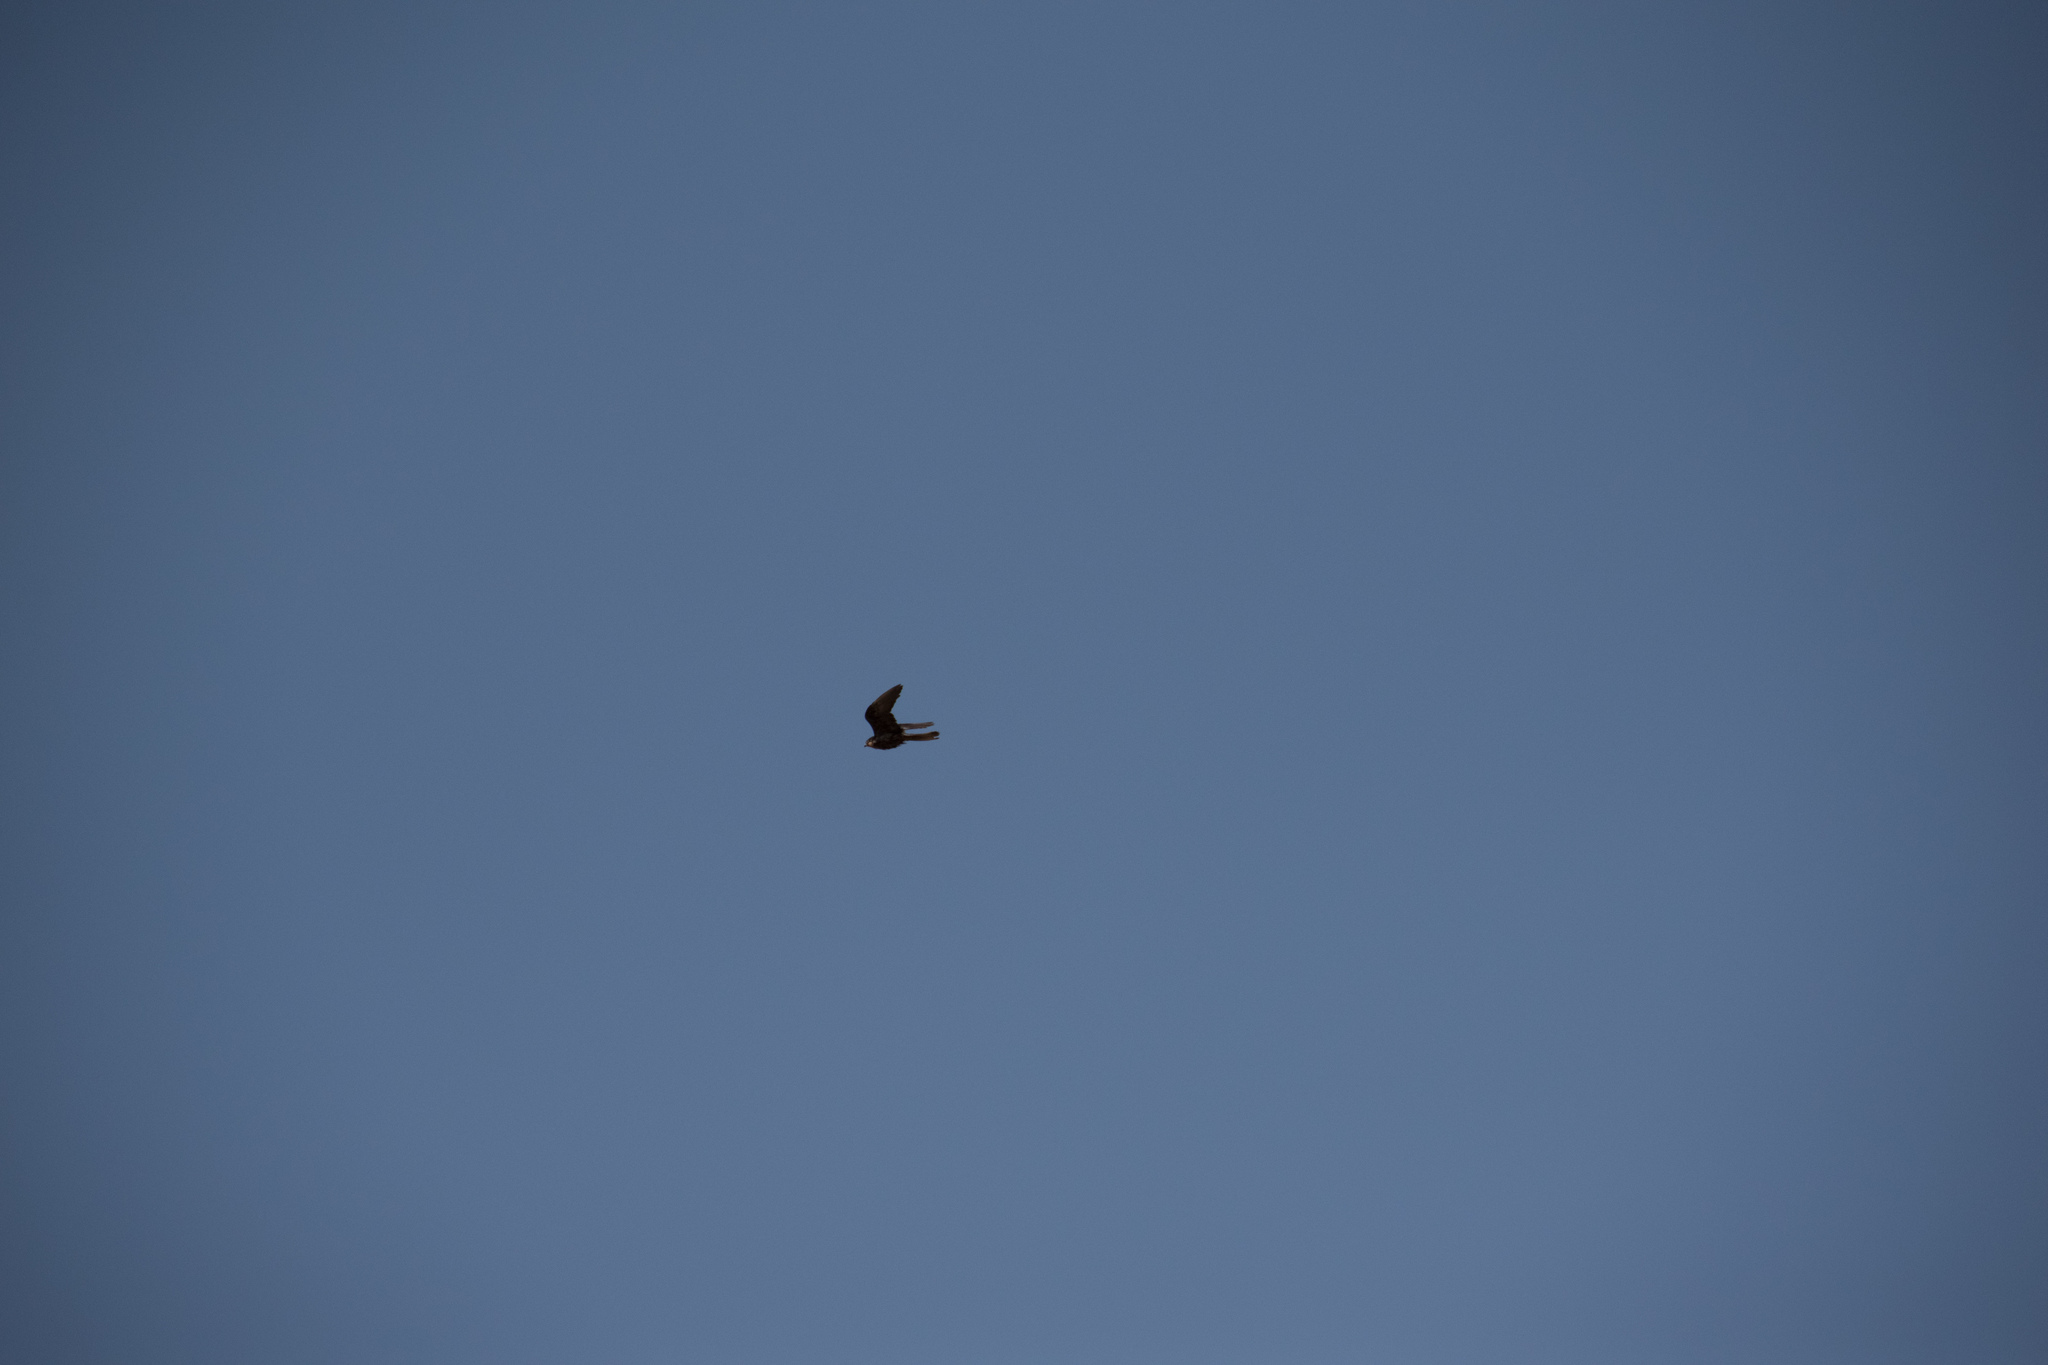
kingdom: Animalia
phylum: Chordata
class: Aves
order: Falconiformes
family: Falconidae
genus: Falco
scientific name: Falco eleonorae
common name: Eleonora's falcon
